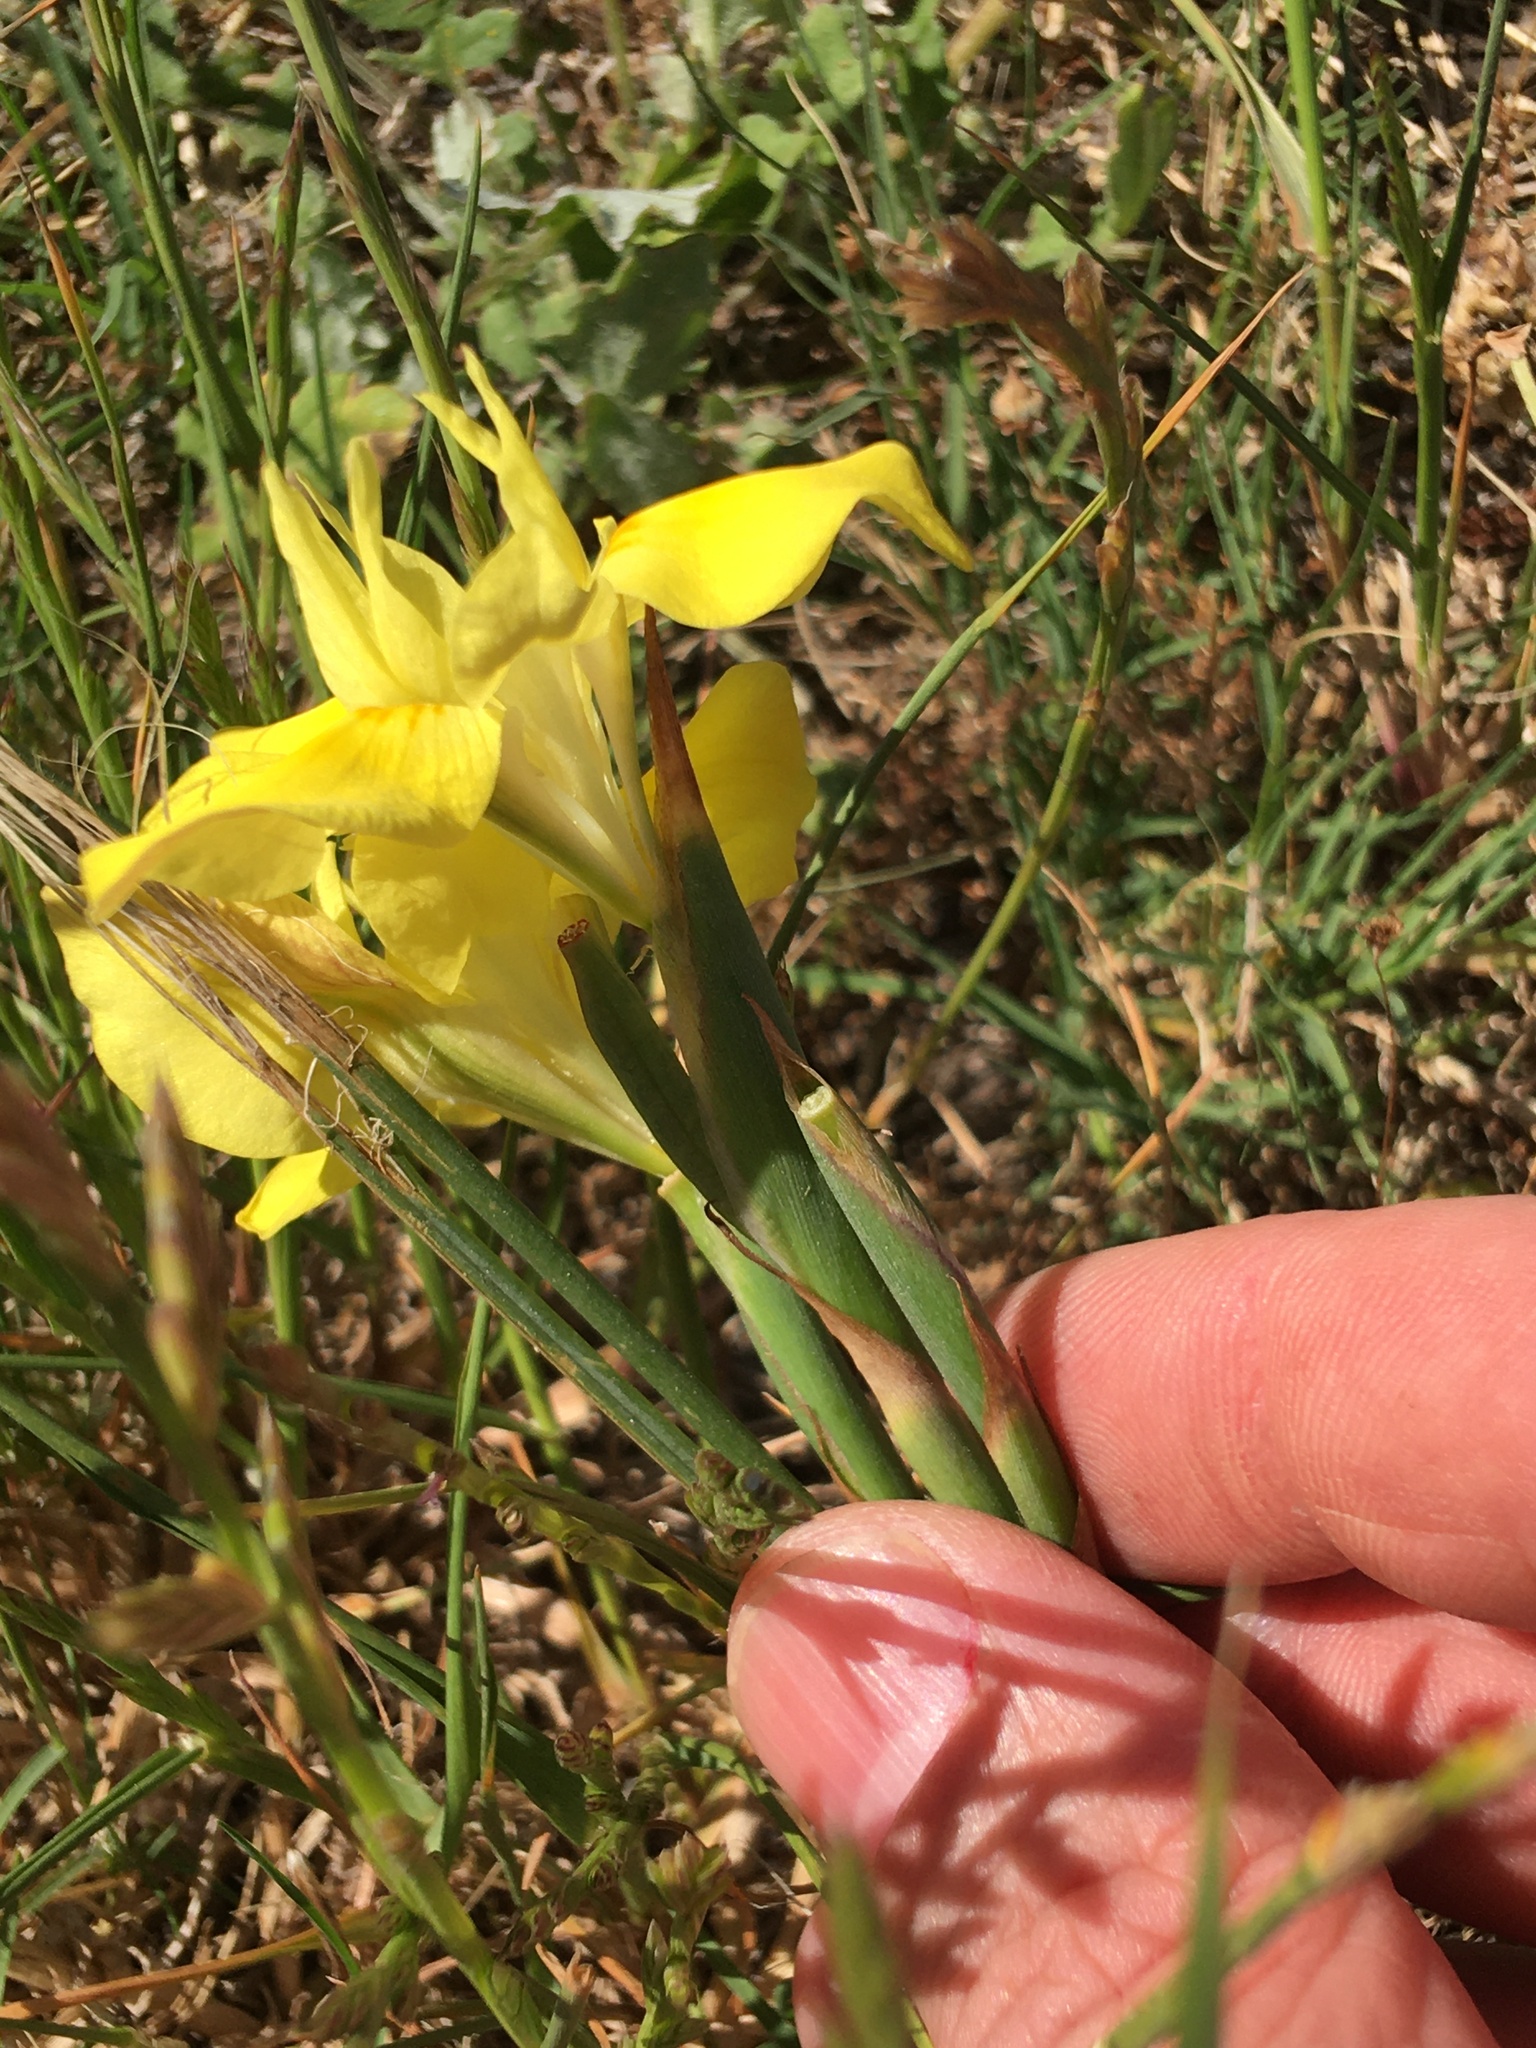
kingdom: Plantae
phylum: Tracheophyta
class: Liliopsida
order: Asparagales
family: Iridaceae
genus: Moraea
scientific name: Moraea fugax
